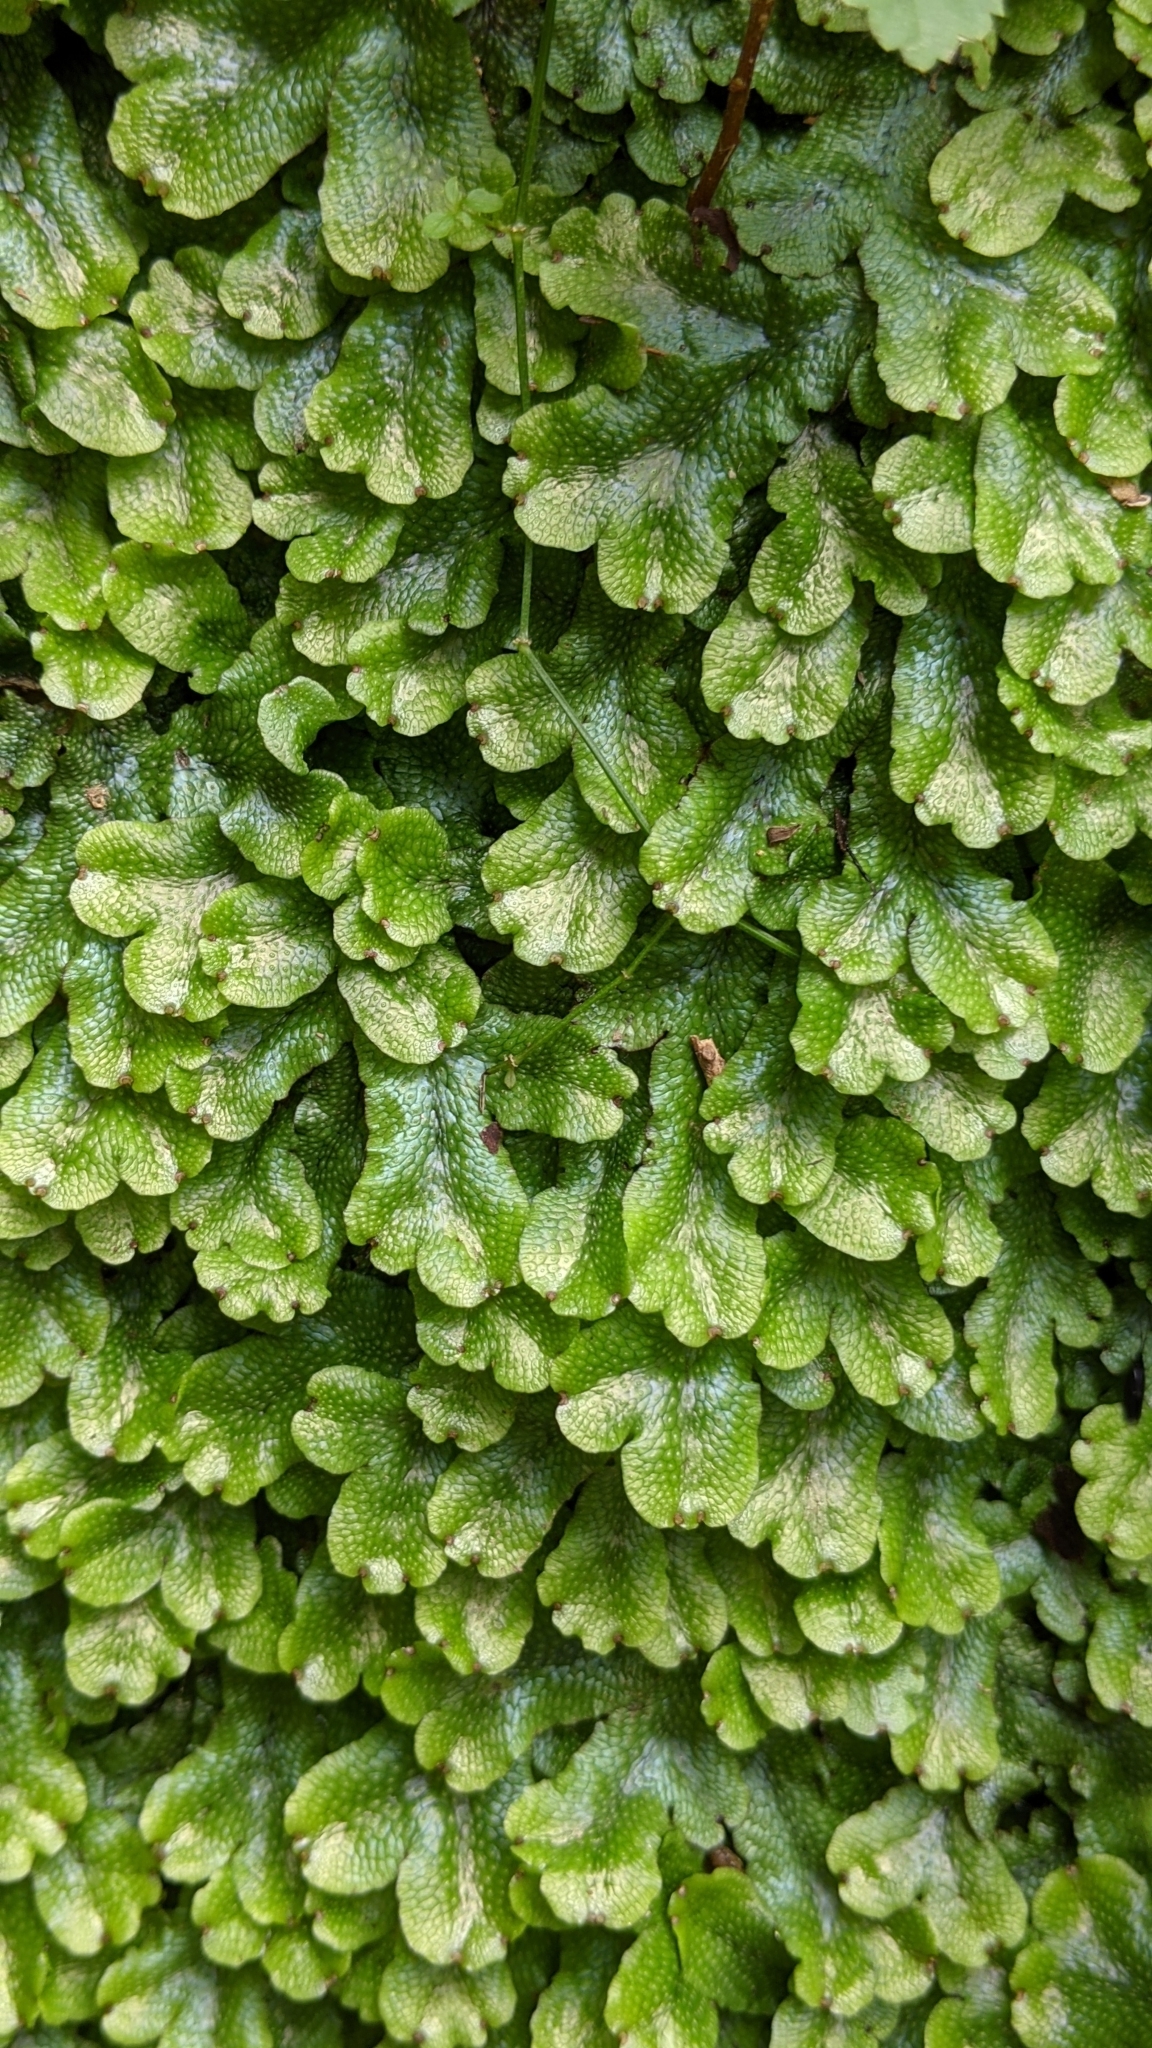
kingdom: Plantae
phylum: Marchantiophyta
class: Marchantiopsida
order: Marchantiales
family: Conocephalaceae
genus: Conocephalum
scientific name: Conocephalum salebrosum
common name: Cat-tongue liverwort
